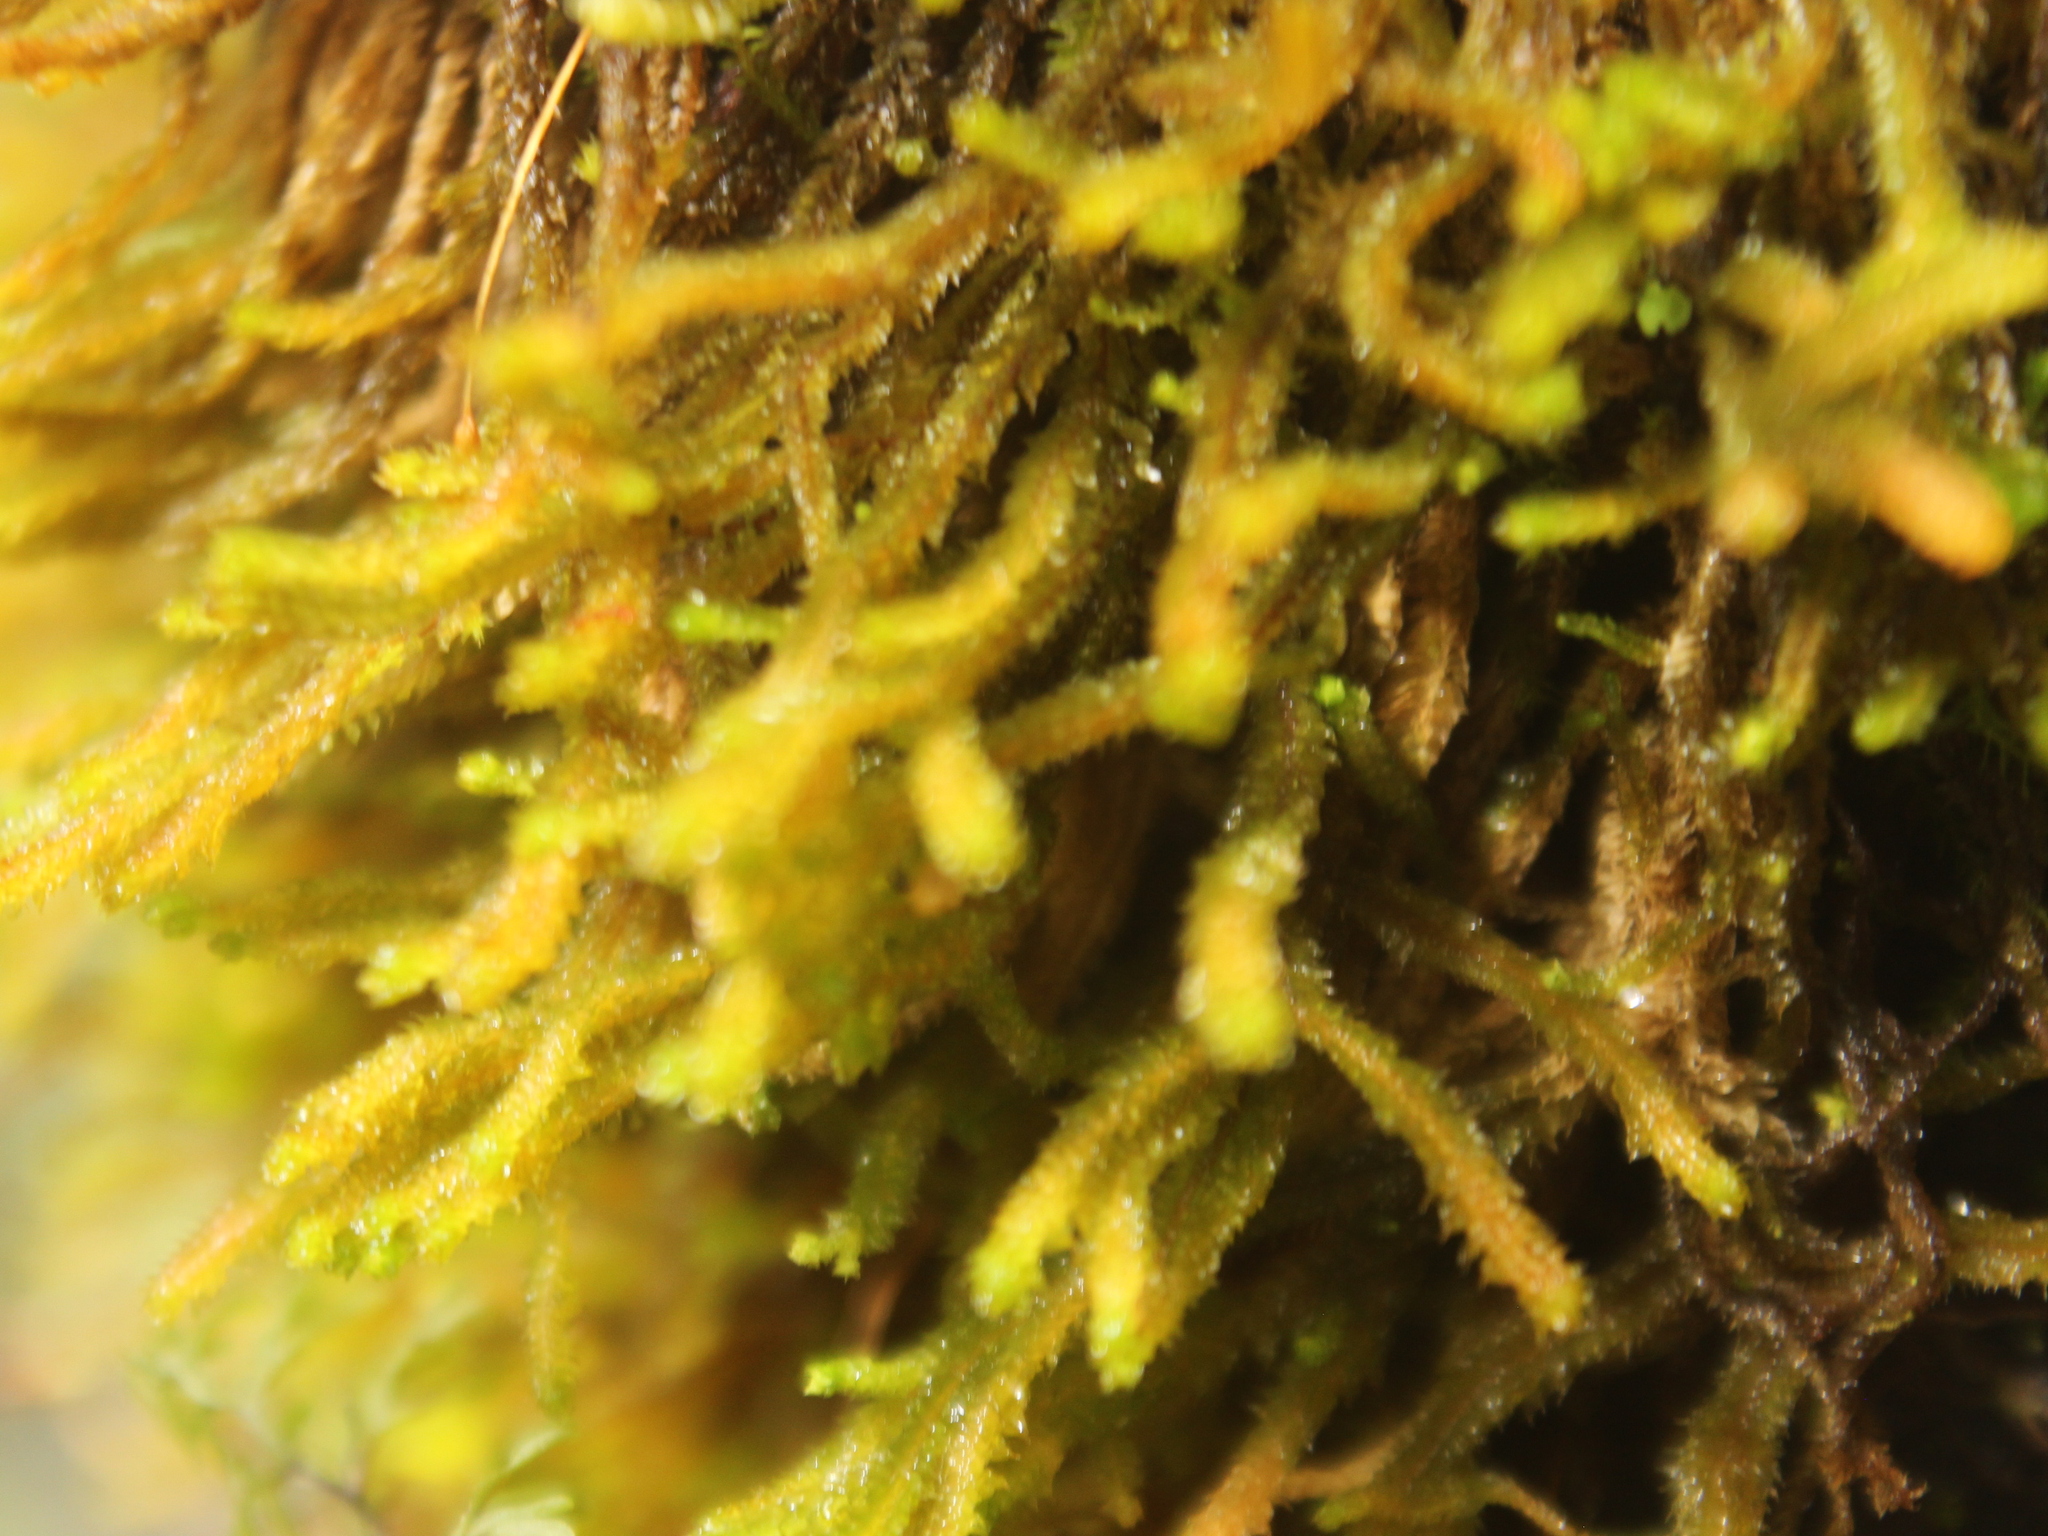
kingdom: Plantae
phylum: Marchantiophyta
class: Jungermanniopsida
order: Jungermanniales
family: Anastrophyllaceae
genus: Chandonanthus
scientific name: Chandonanthus squarrosus
